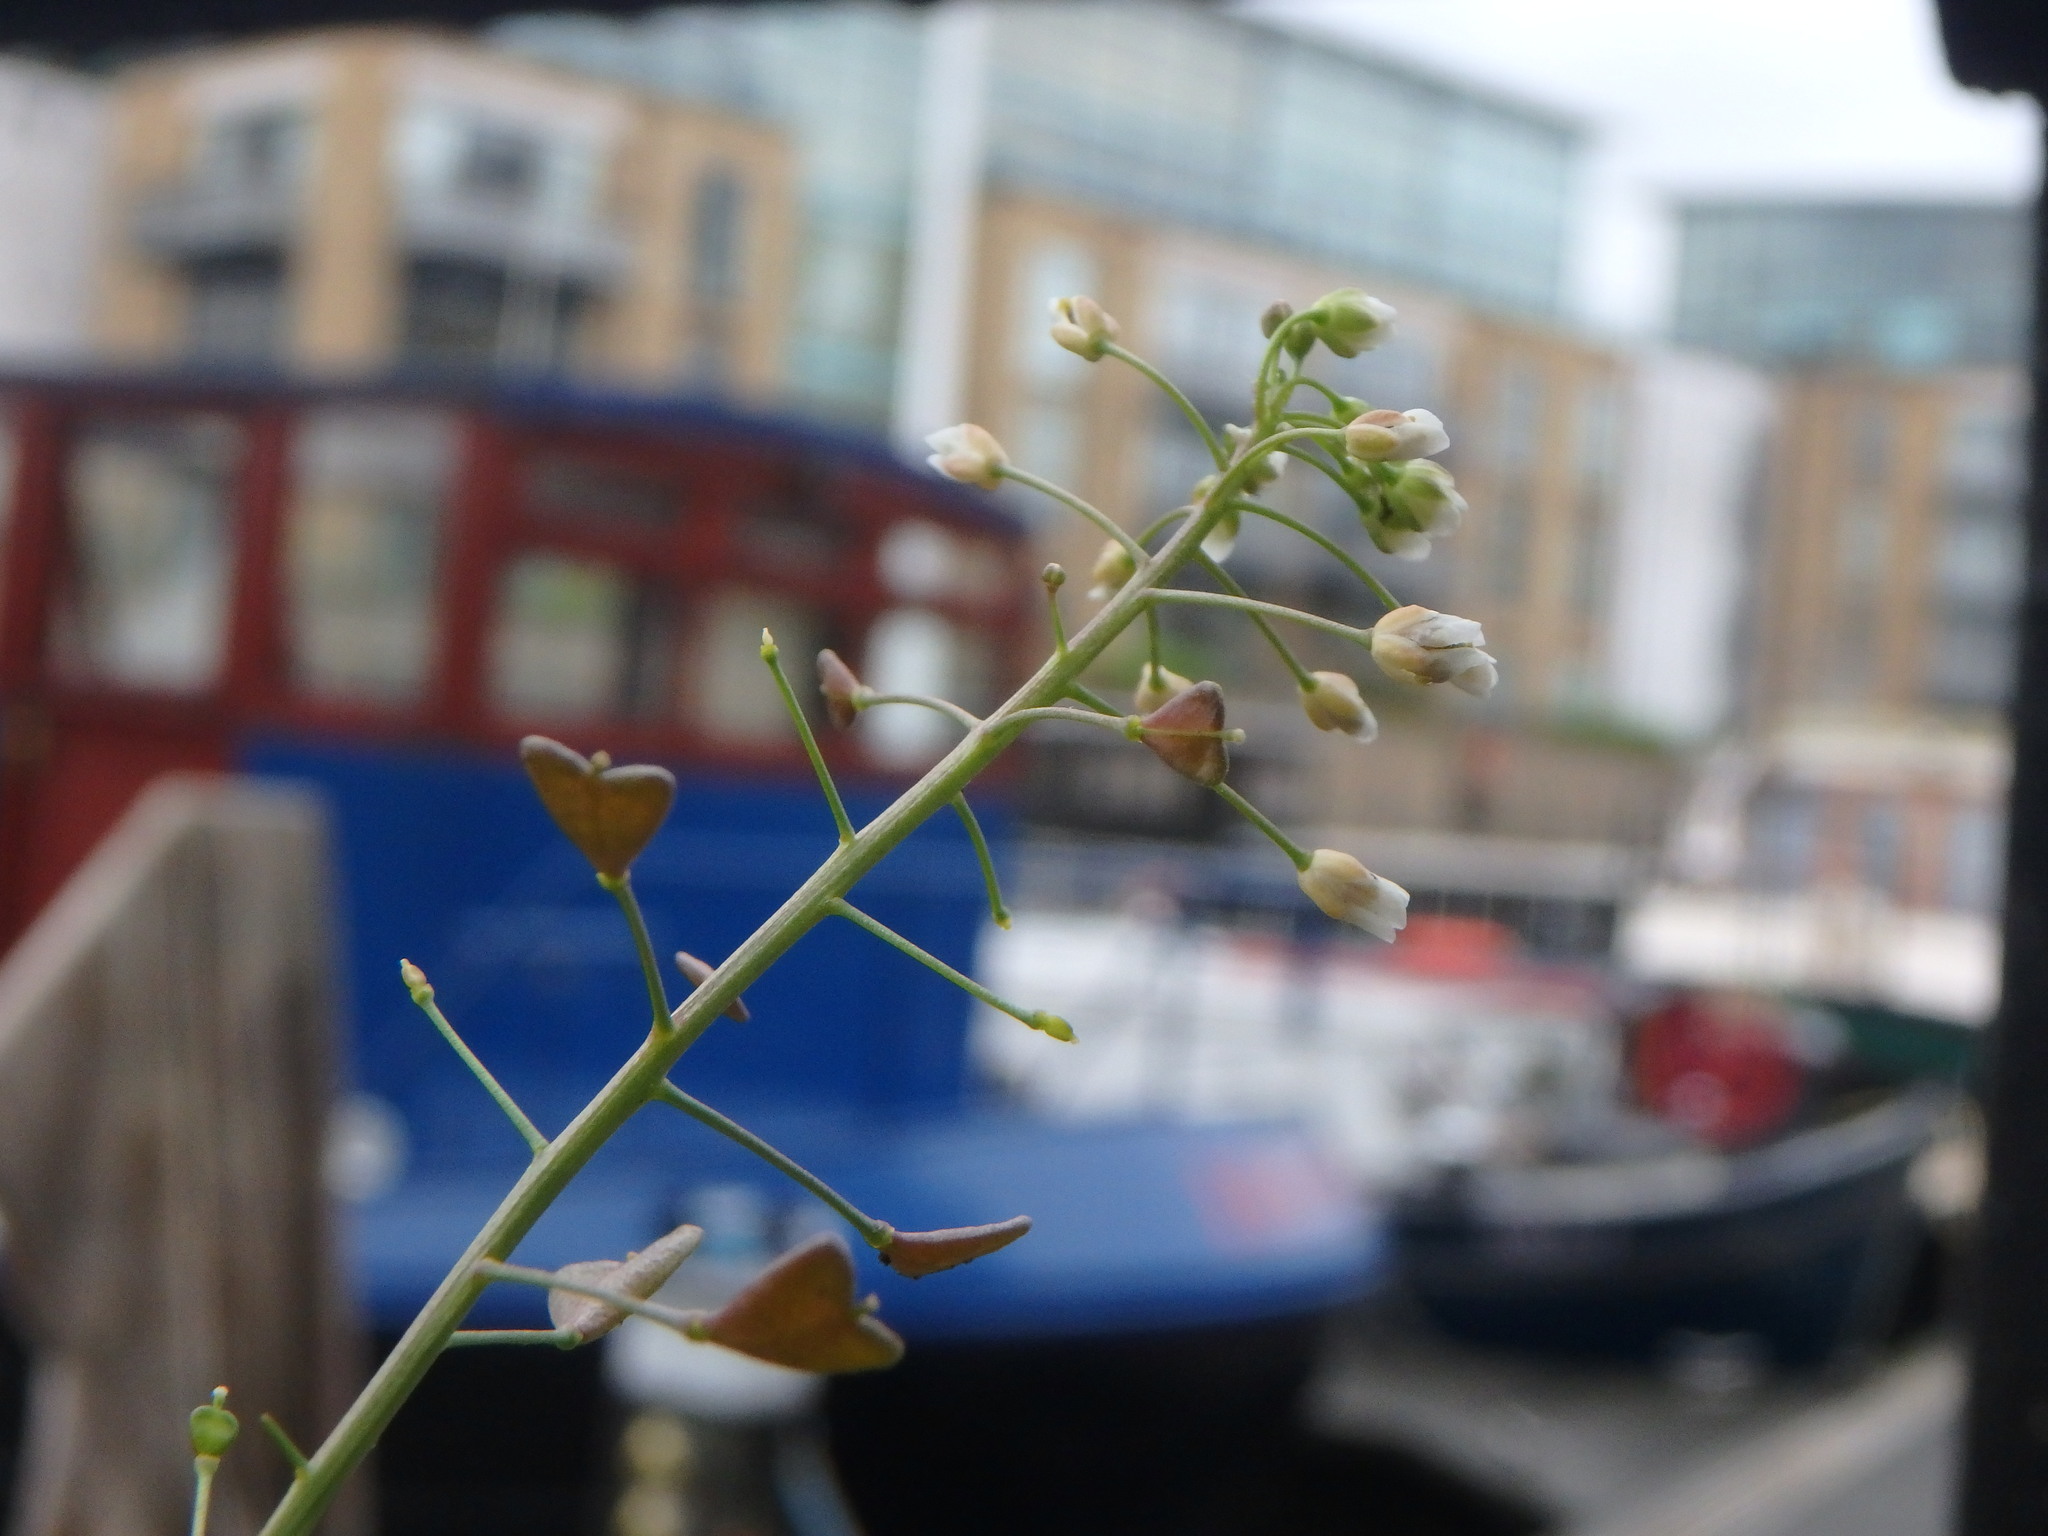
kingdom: Plantae
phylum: Tracheophyta
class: Magnoliopsida
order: Brassicales
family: Brassicaceae
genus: Capsella
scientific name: Capsella bursa-pastoris
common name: Shepherd's purse
